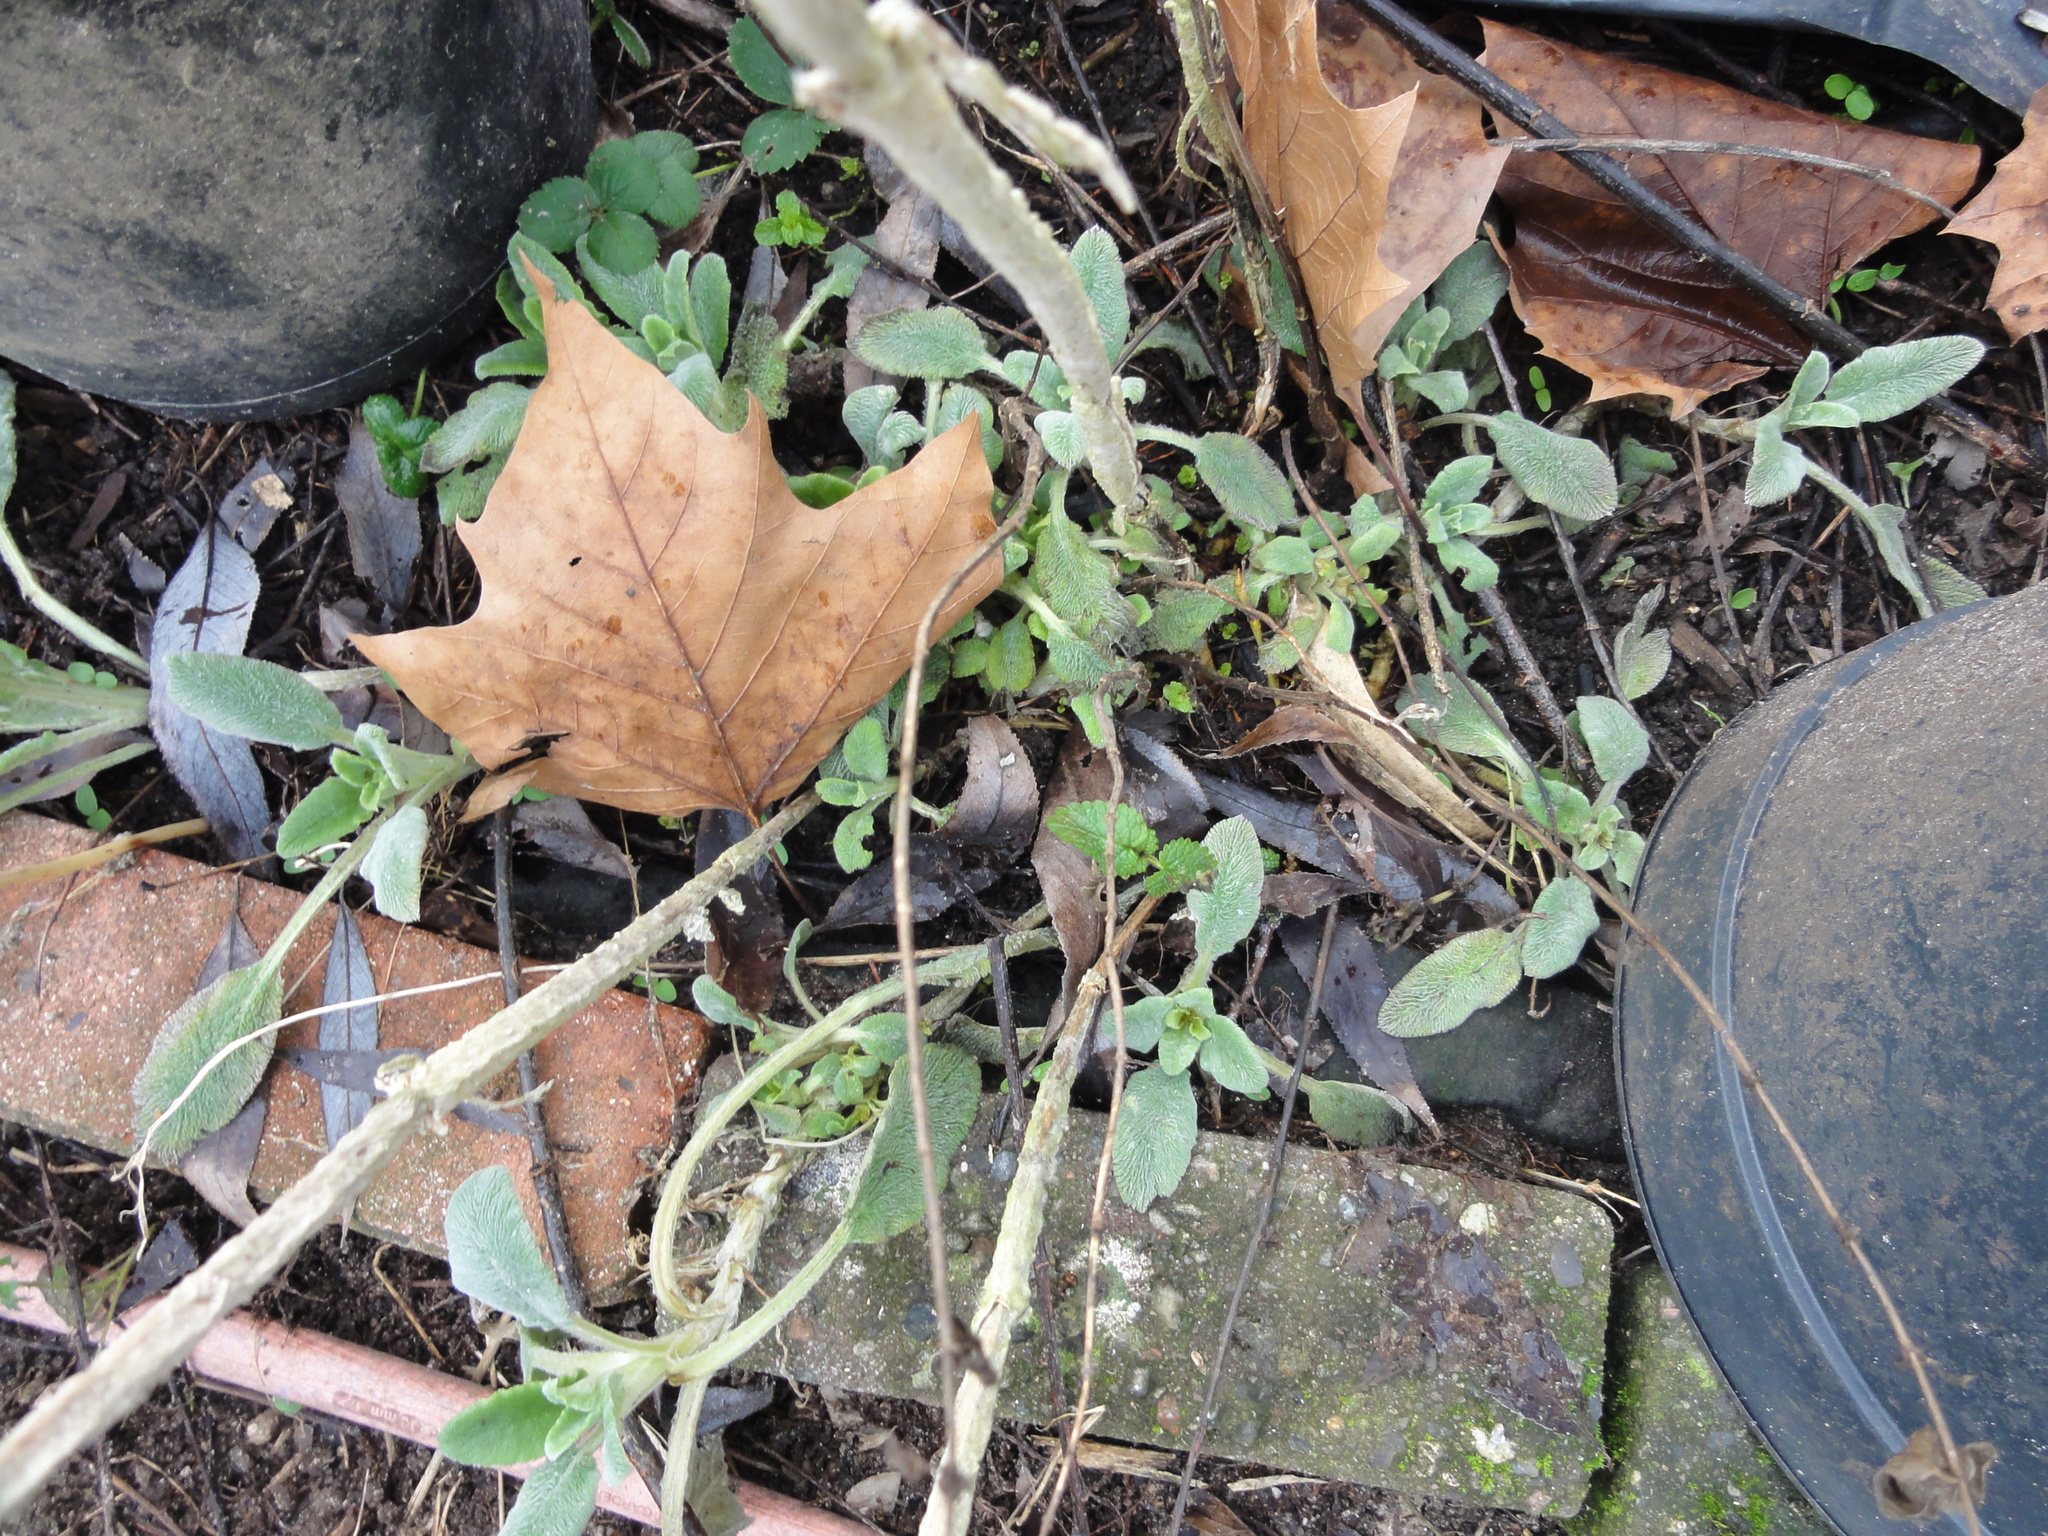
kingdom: Plantae
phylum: Tracheophyta
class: Magnoliopsida
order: Lamiales
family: Lamiaceae
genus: Stachys
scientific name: Stachys byzantina
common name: Lamb's-ear
